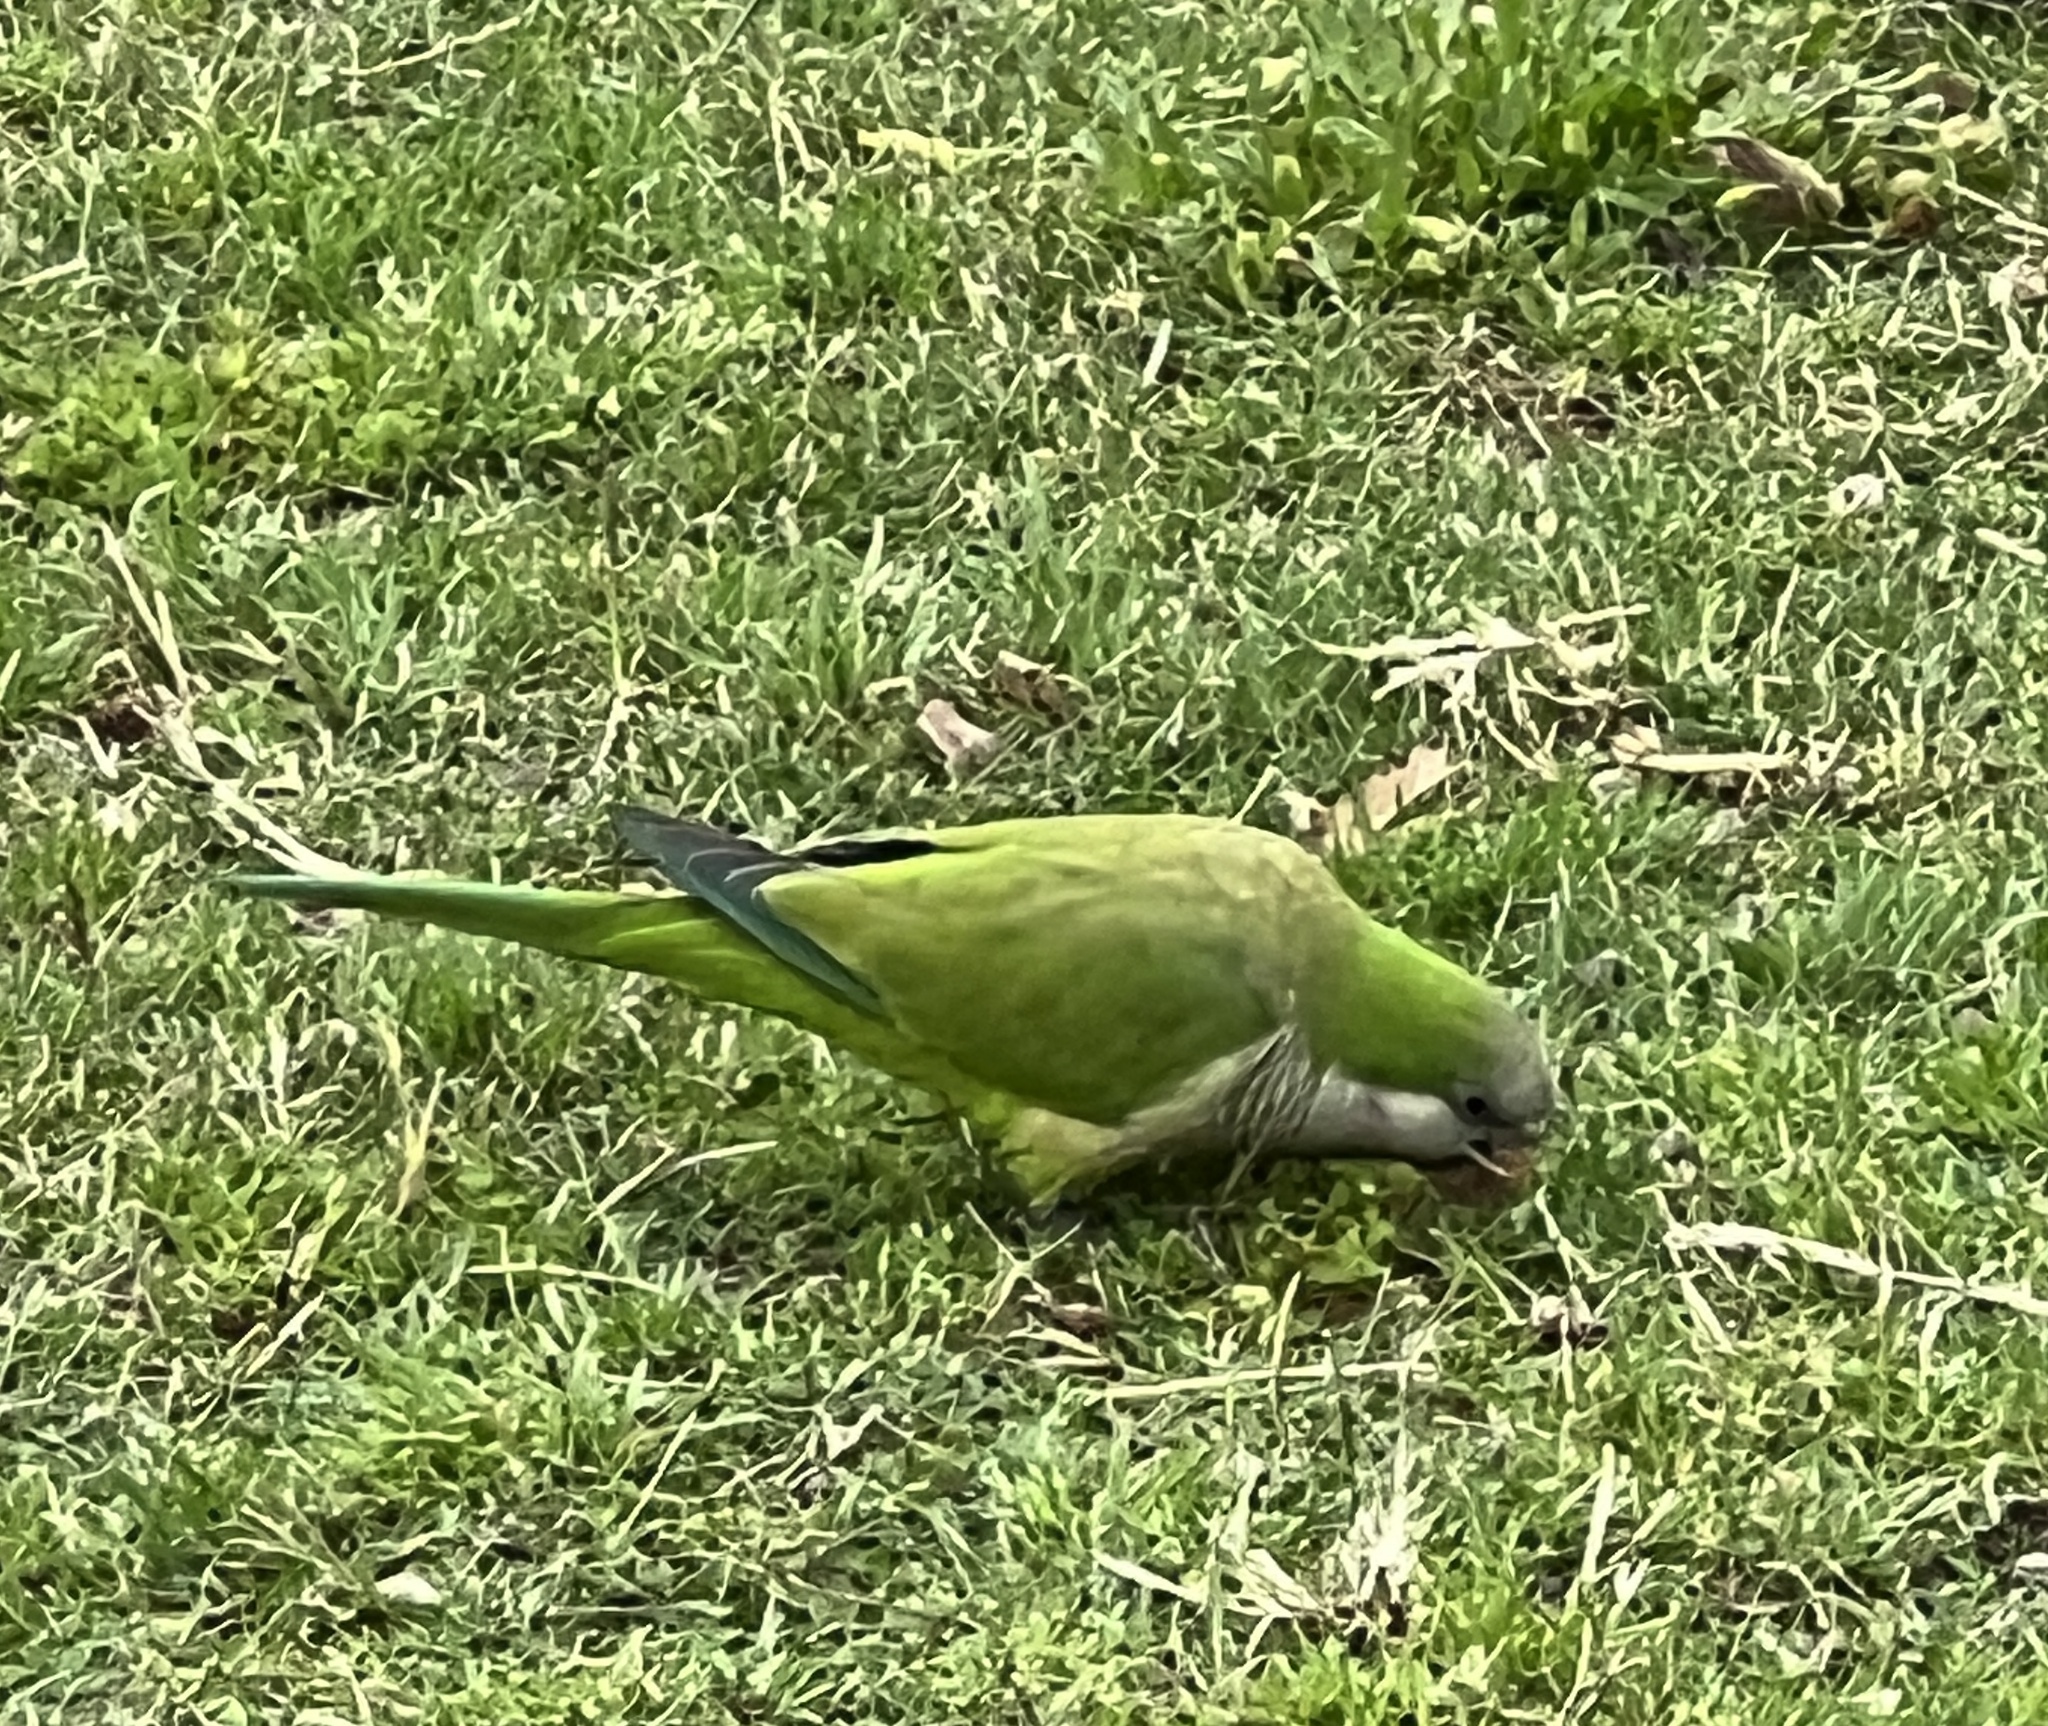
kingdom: Animalia
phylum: Chordata
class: Aves
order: Psittaciformes
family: Psittacidae
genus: Myiopsitta
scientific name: Myiopsitta monachus
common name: Monk parakeet
